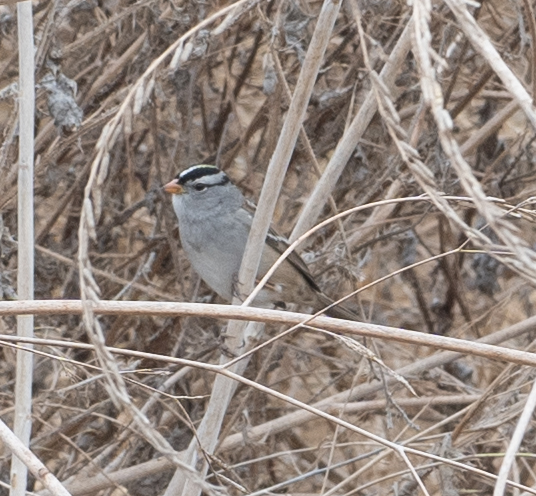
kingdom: Animalia
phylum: Chordata
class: Aves
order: Passeriformes
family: Passerellidae
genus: Zonotrichia
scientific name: Zonotrichia leucophrys
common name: White-crowned sparrow
